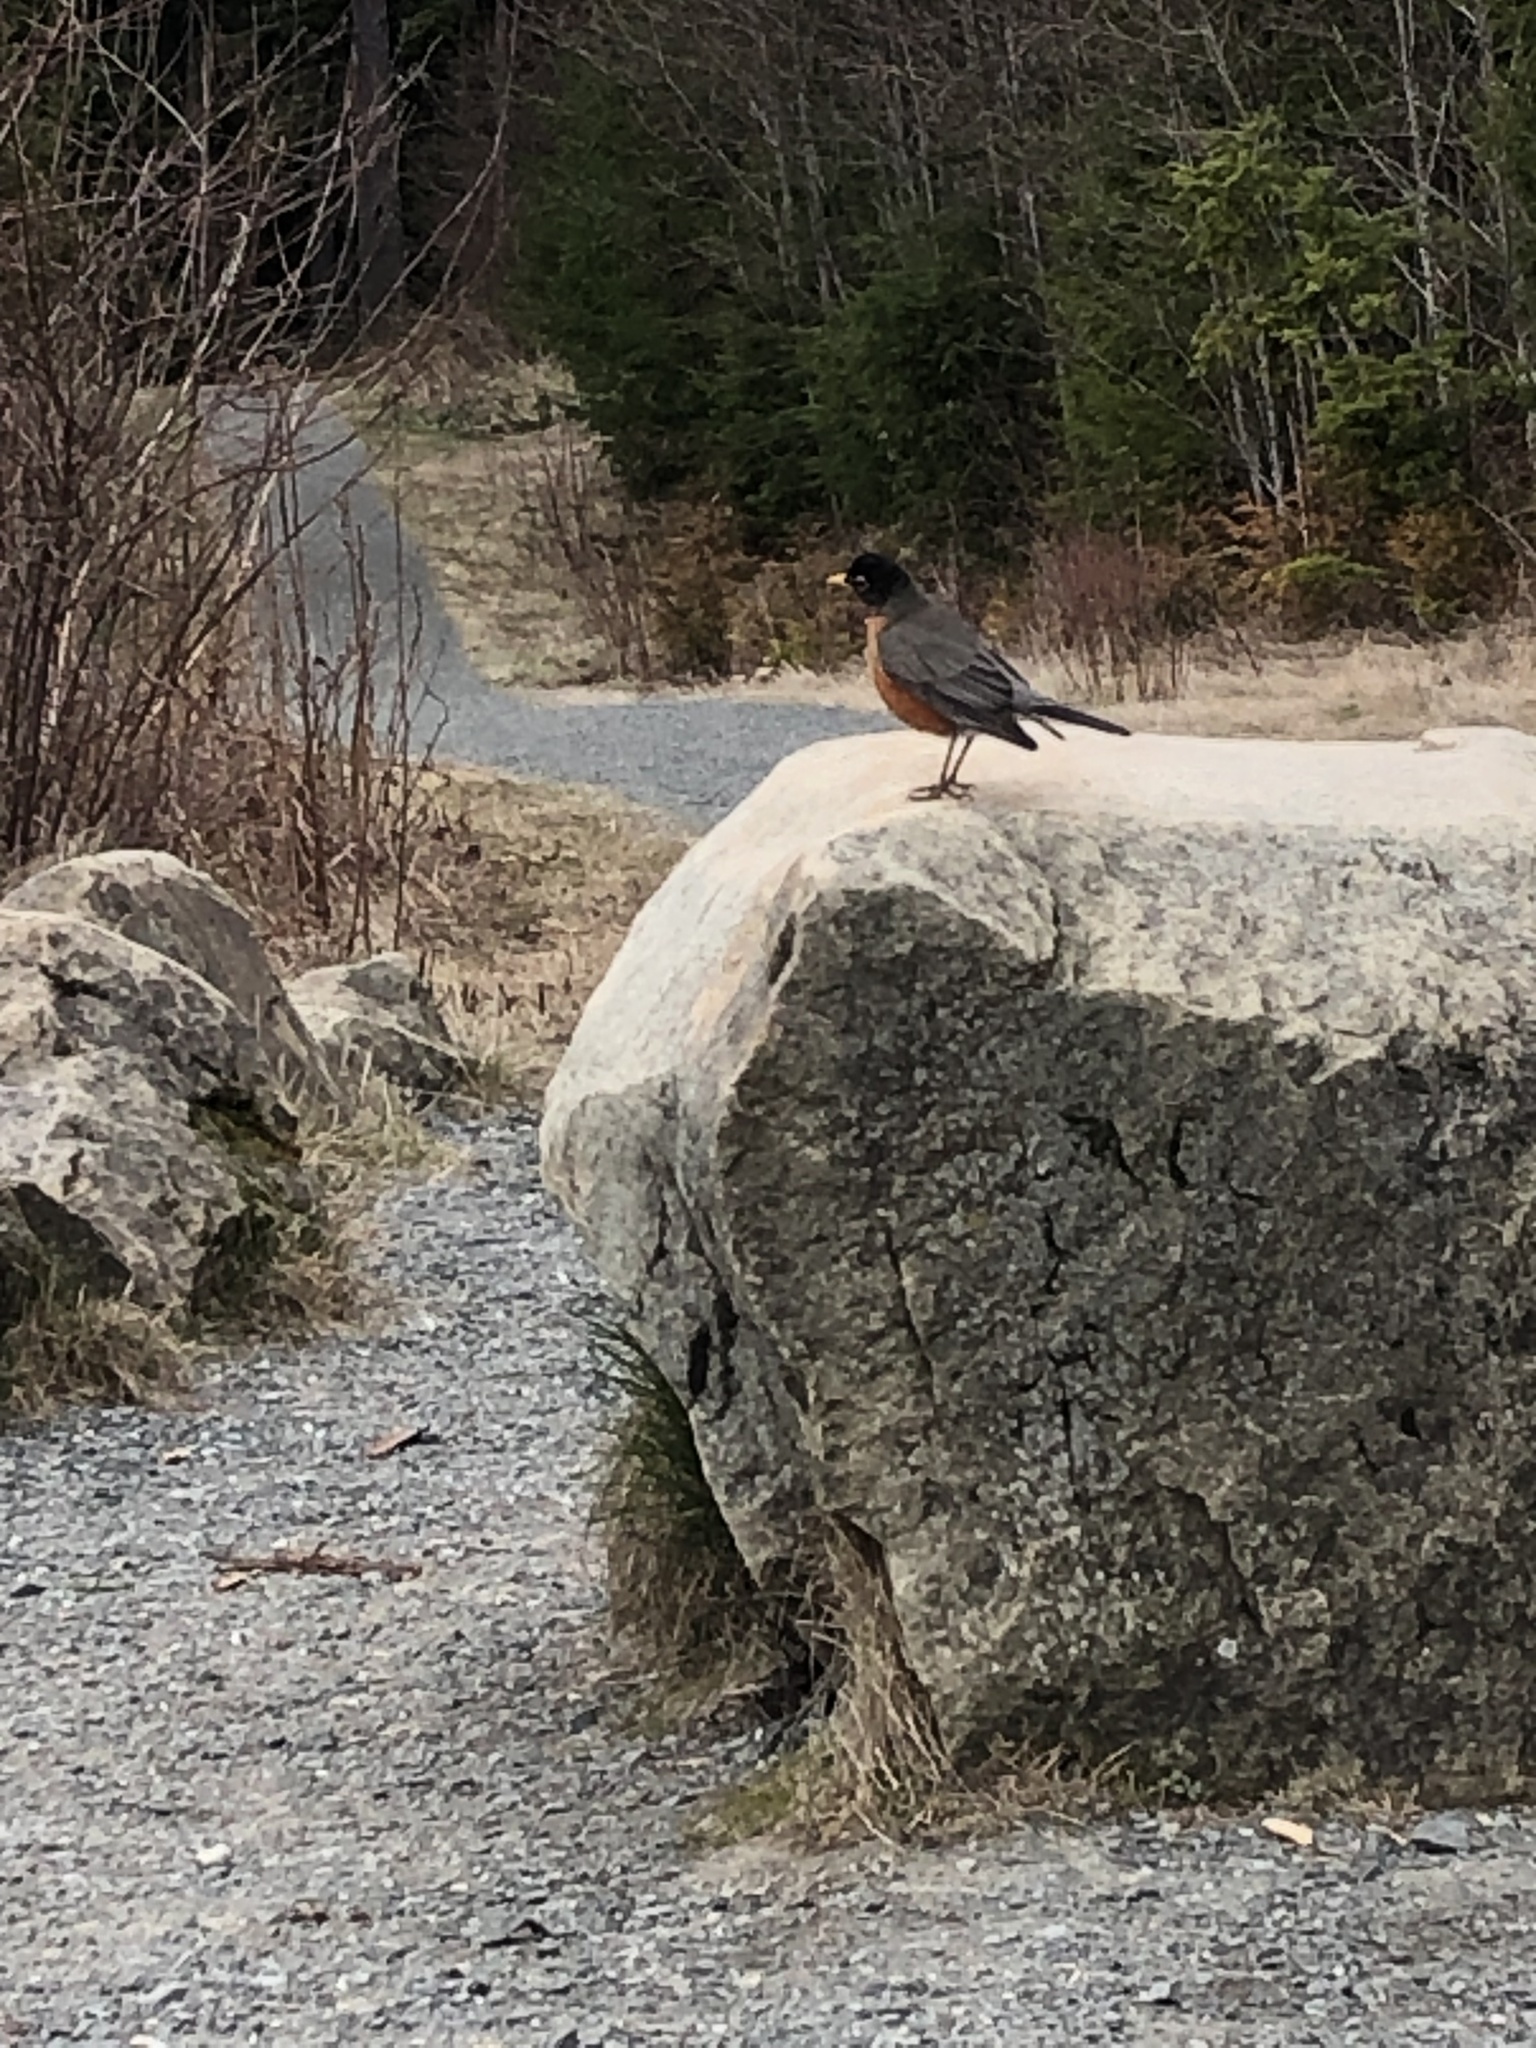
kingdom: Animalia
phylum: Chordata
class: Aves
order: Passeriformes
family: Turdidae
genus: Turdus
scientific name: Turdus migratorius
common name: American robin
